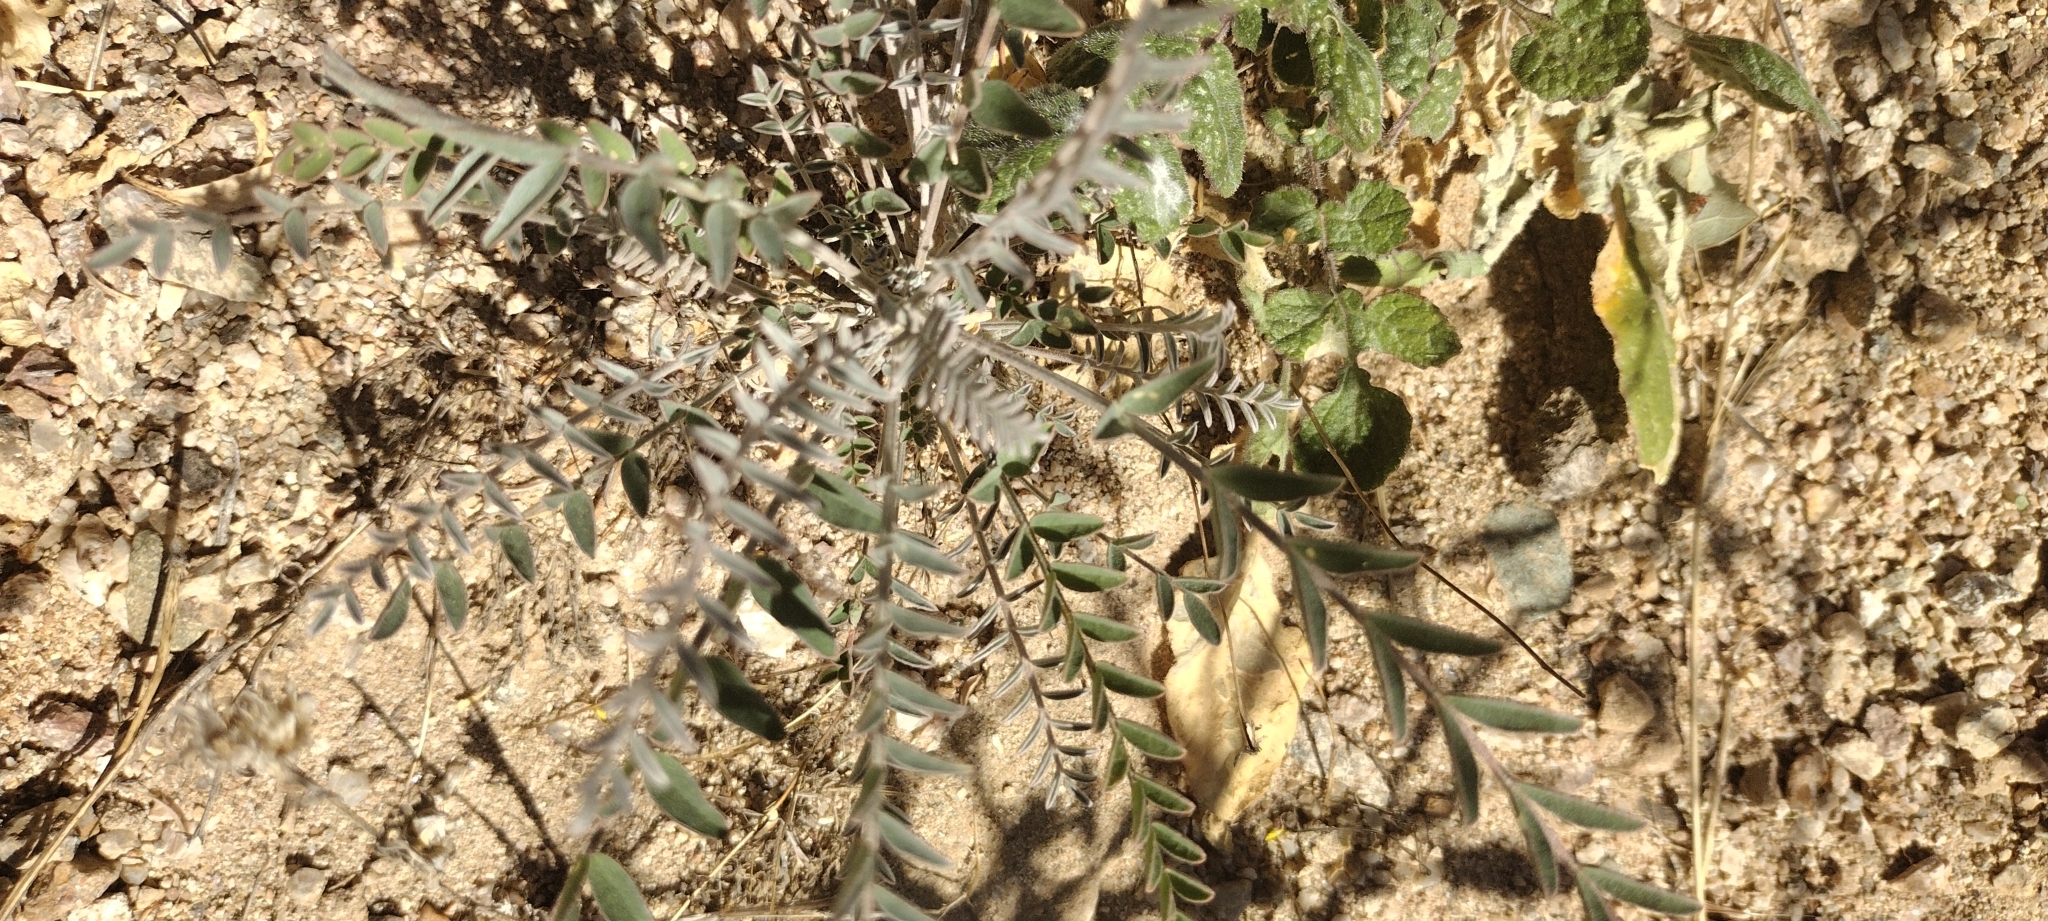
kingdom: Plantae
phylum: Tracheophyta
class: Magnoliopsida
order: Fabales
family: Fabaceae
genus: Astragalus
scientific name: Astragalus trichopodus
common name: Santa barbara milk-vetch
